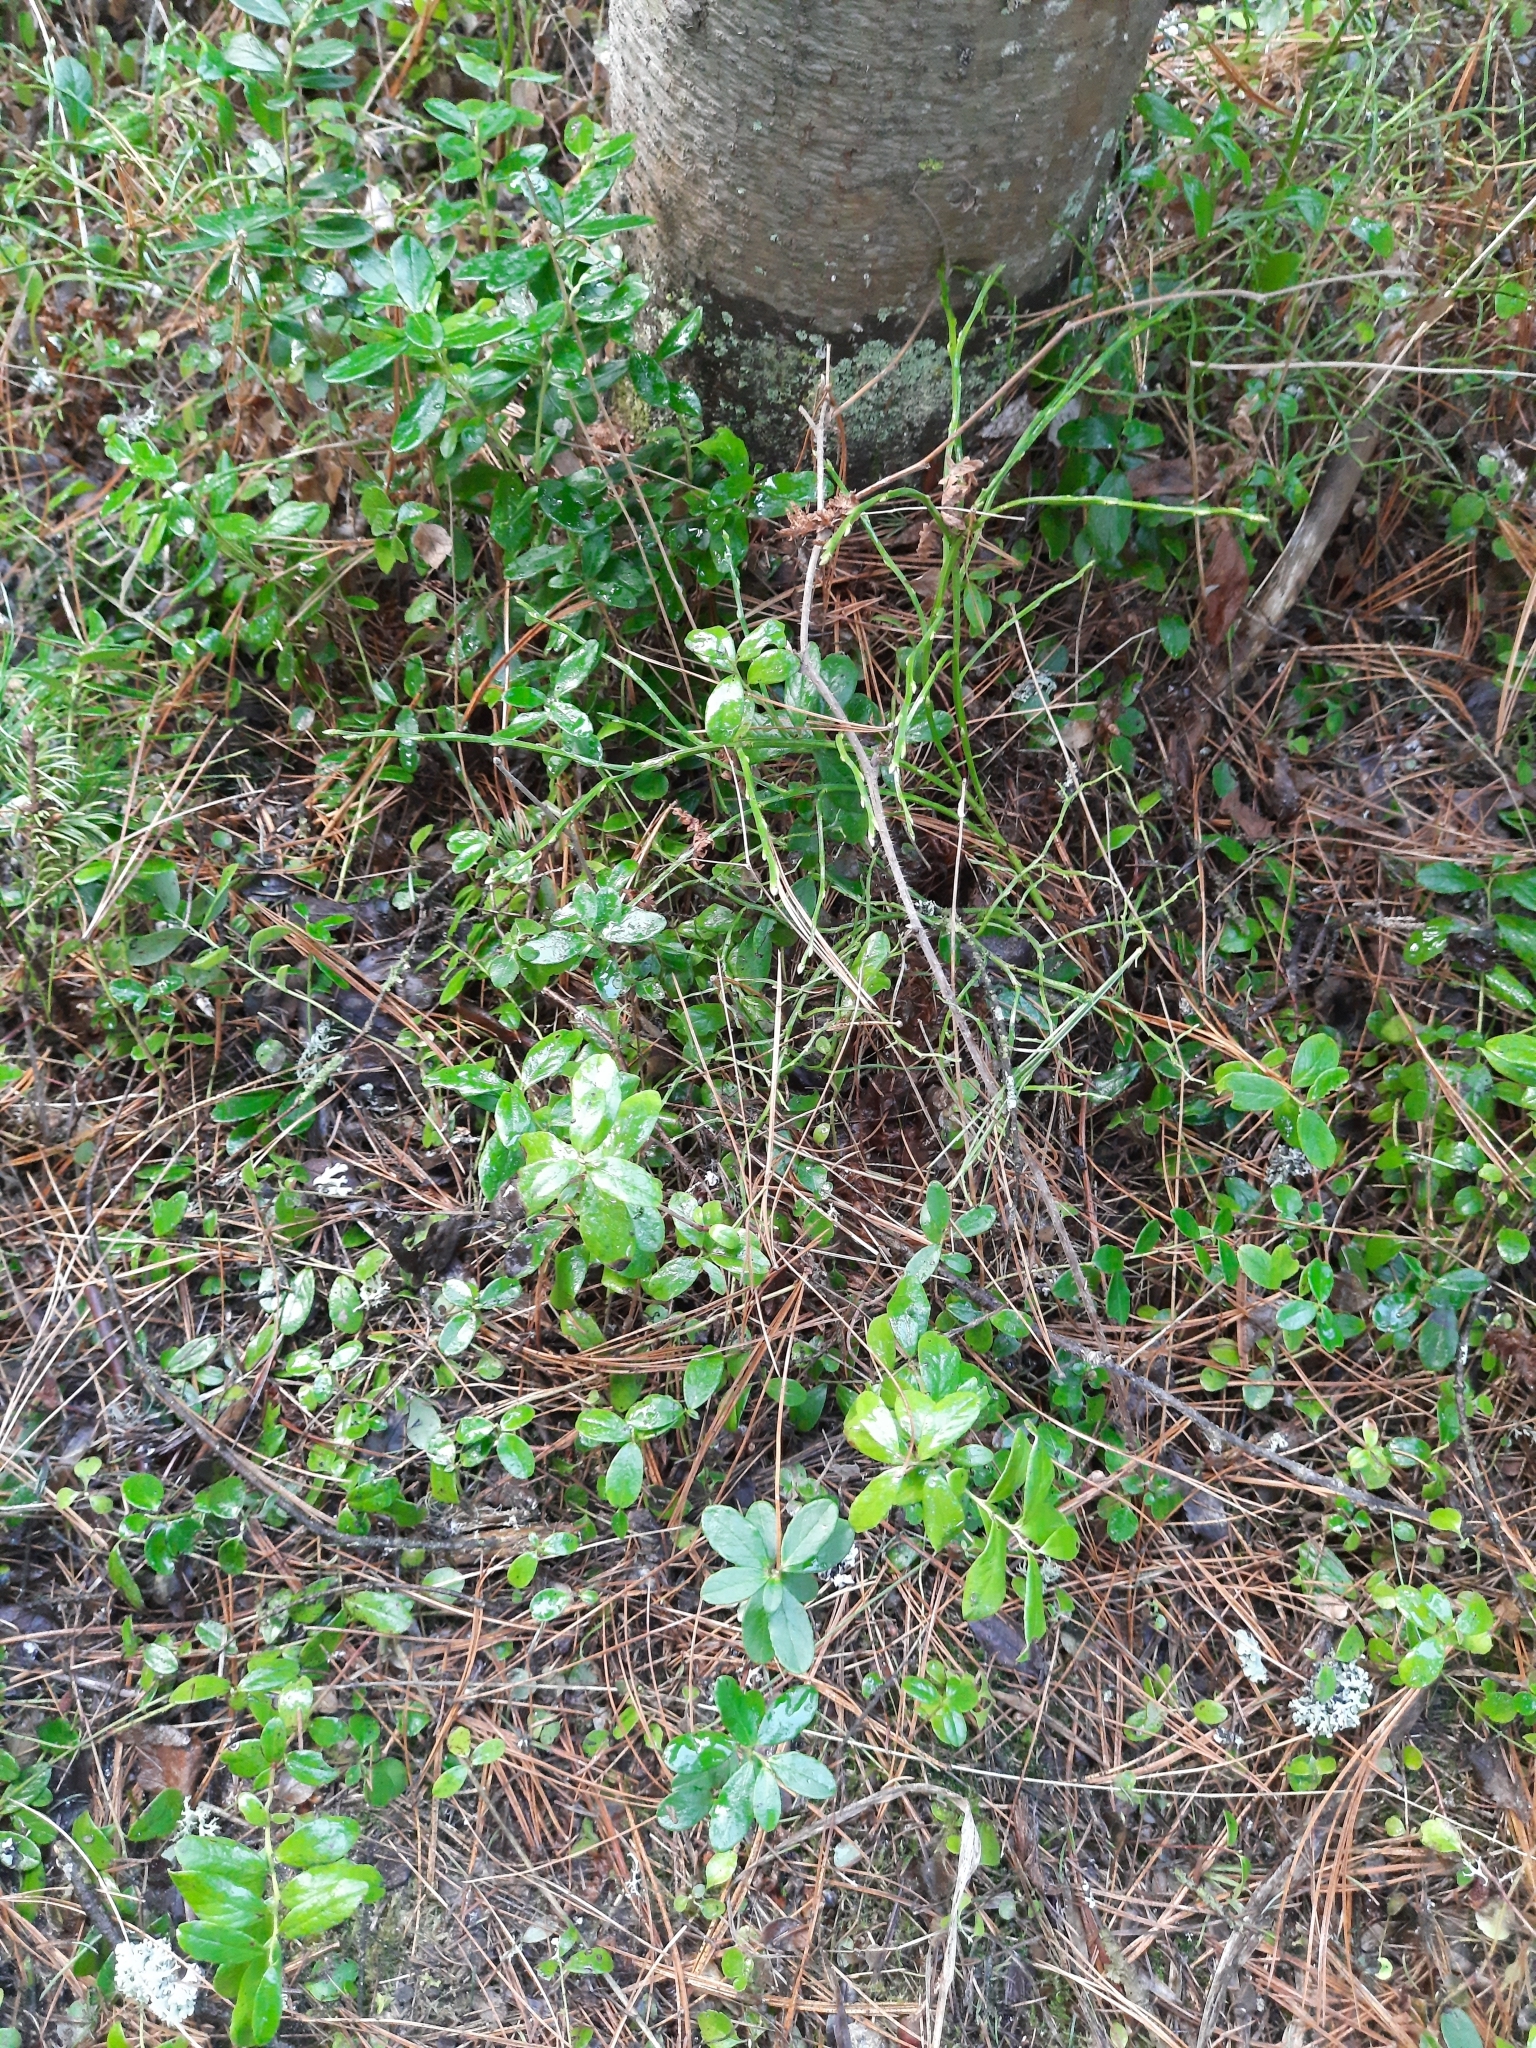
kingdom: Plantae
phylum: Tracheophyta
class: Magnoliopsida
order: Ericales
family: Ericaceae
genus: Vaccinium
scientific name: Vaccinium vitis-idaea
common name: Cowberry
